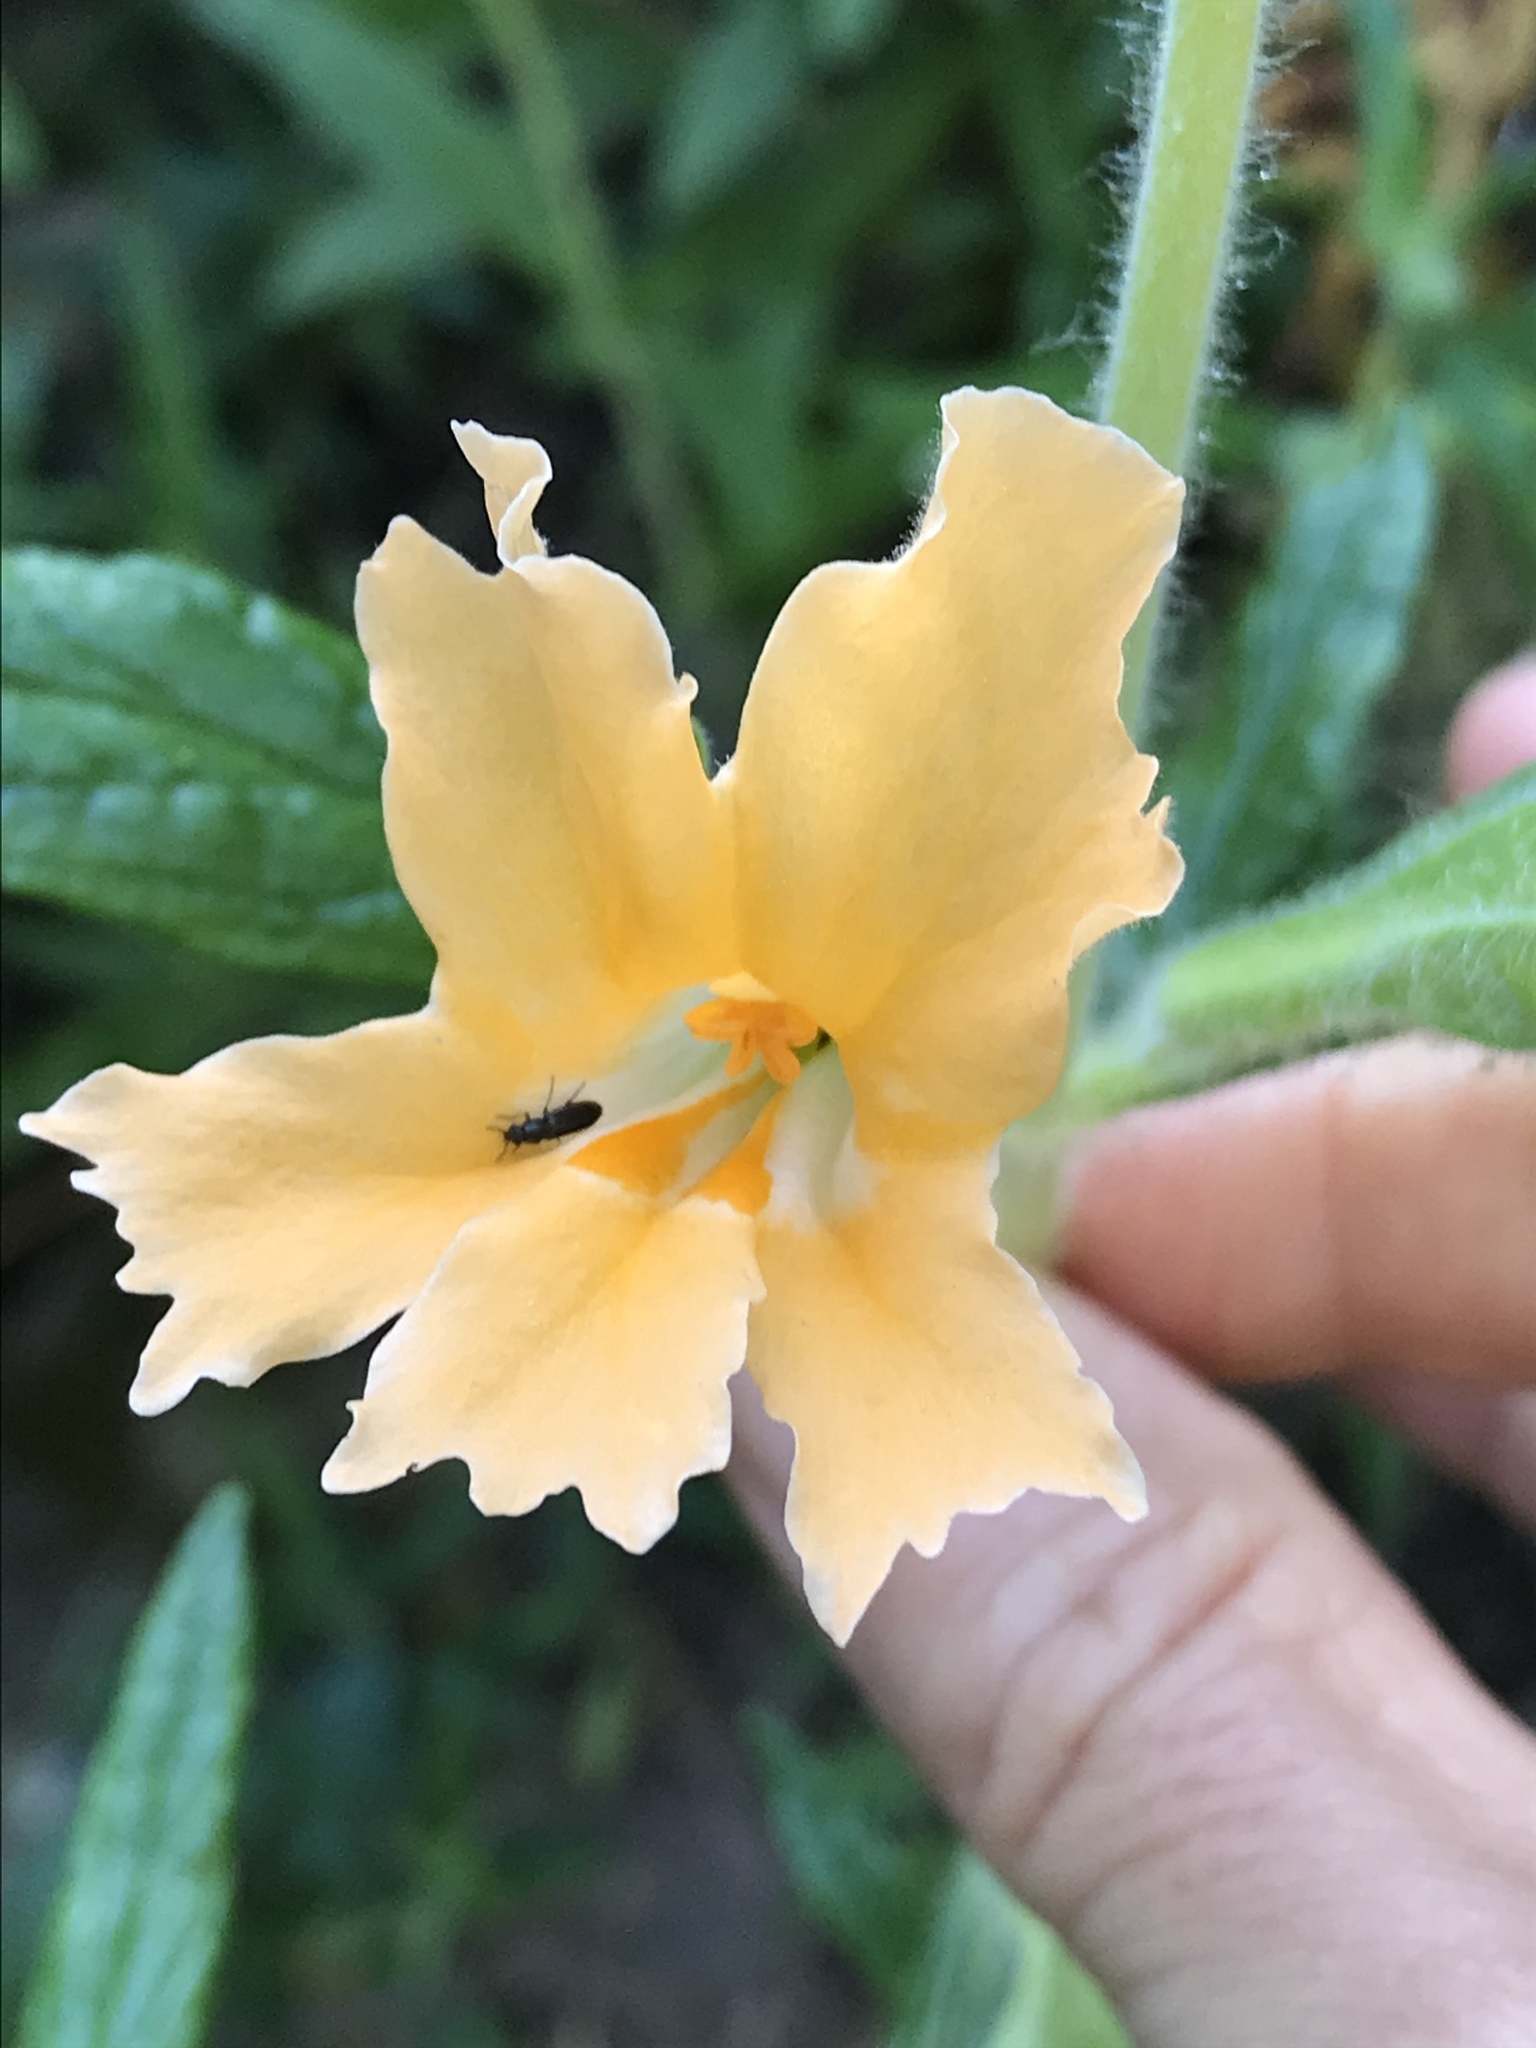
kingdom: Plantae
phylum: Tracheophyta
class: Magnoliopsida
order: Lamiales
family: Phrymaceae
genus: Diplacus
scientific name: Diplacus longiflorus
